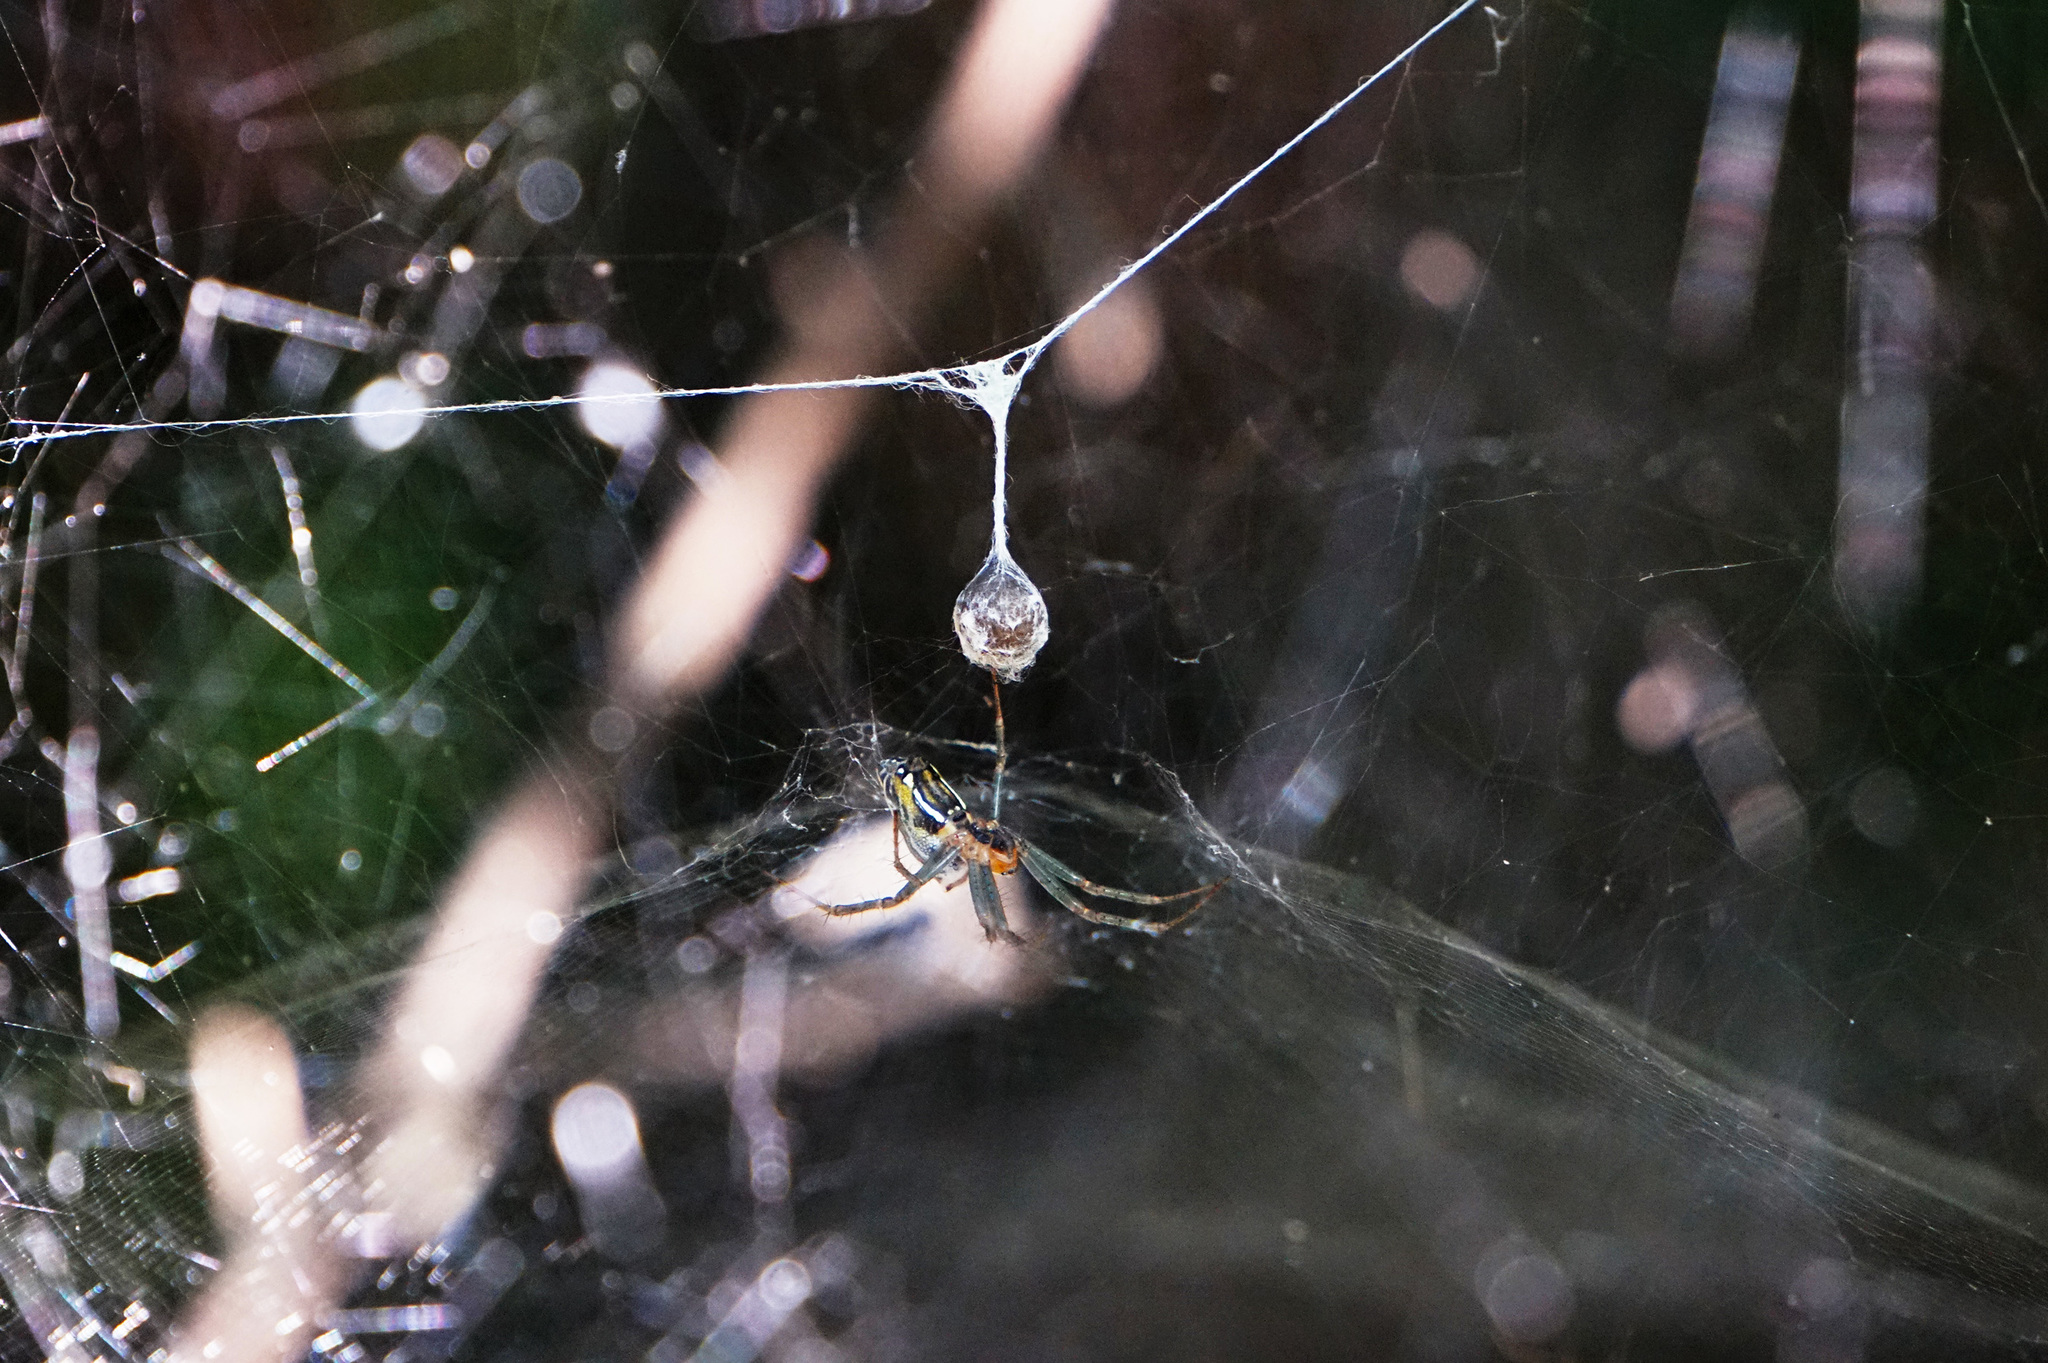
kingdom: Animalia
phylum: Arthropoda
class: Arachnida
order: Araneae
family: Araneidae
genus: Mecynogea
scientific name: Mecynogea lemniscata
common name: Orb weavers
